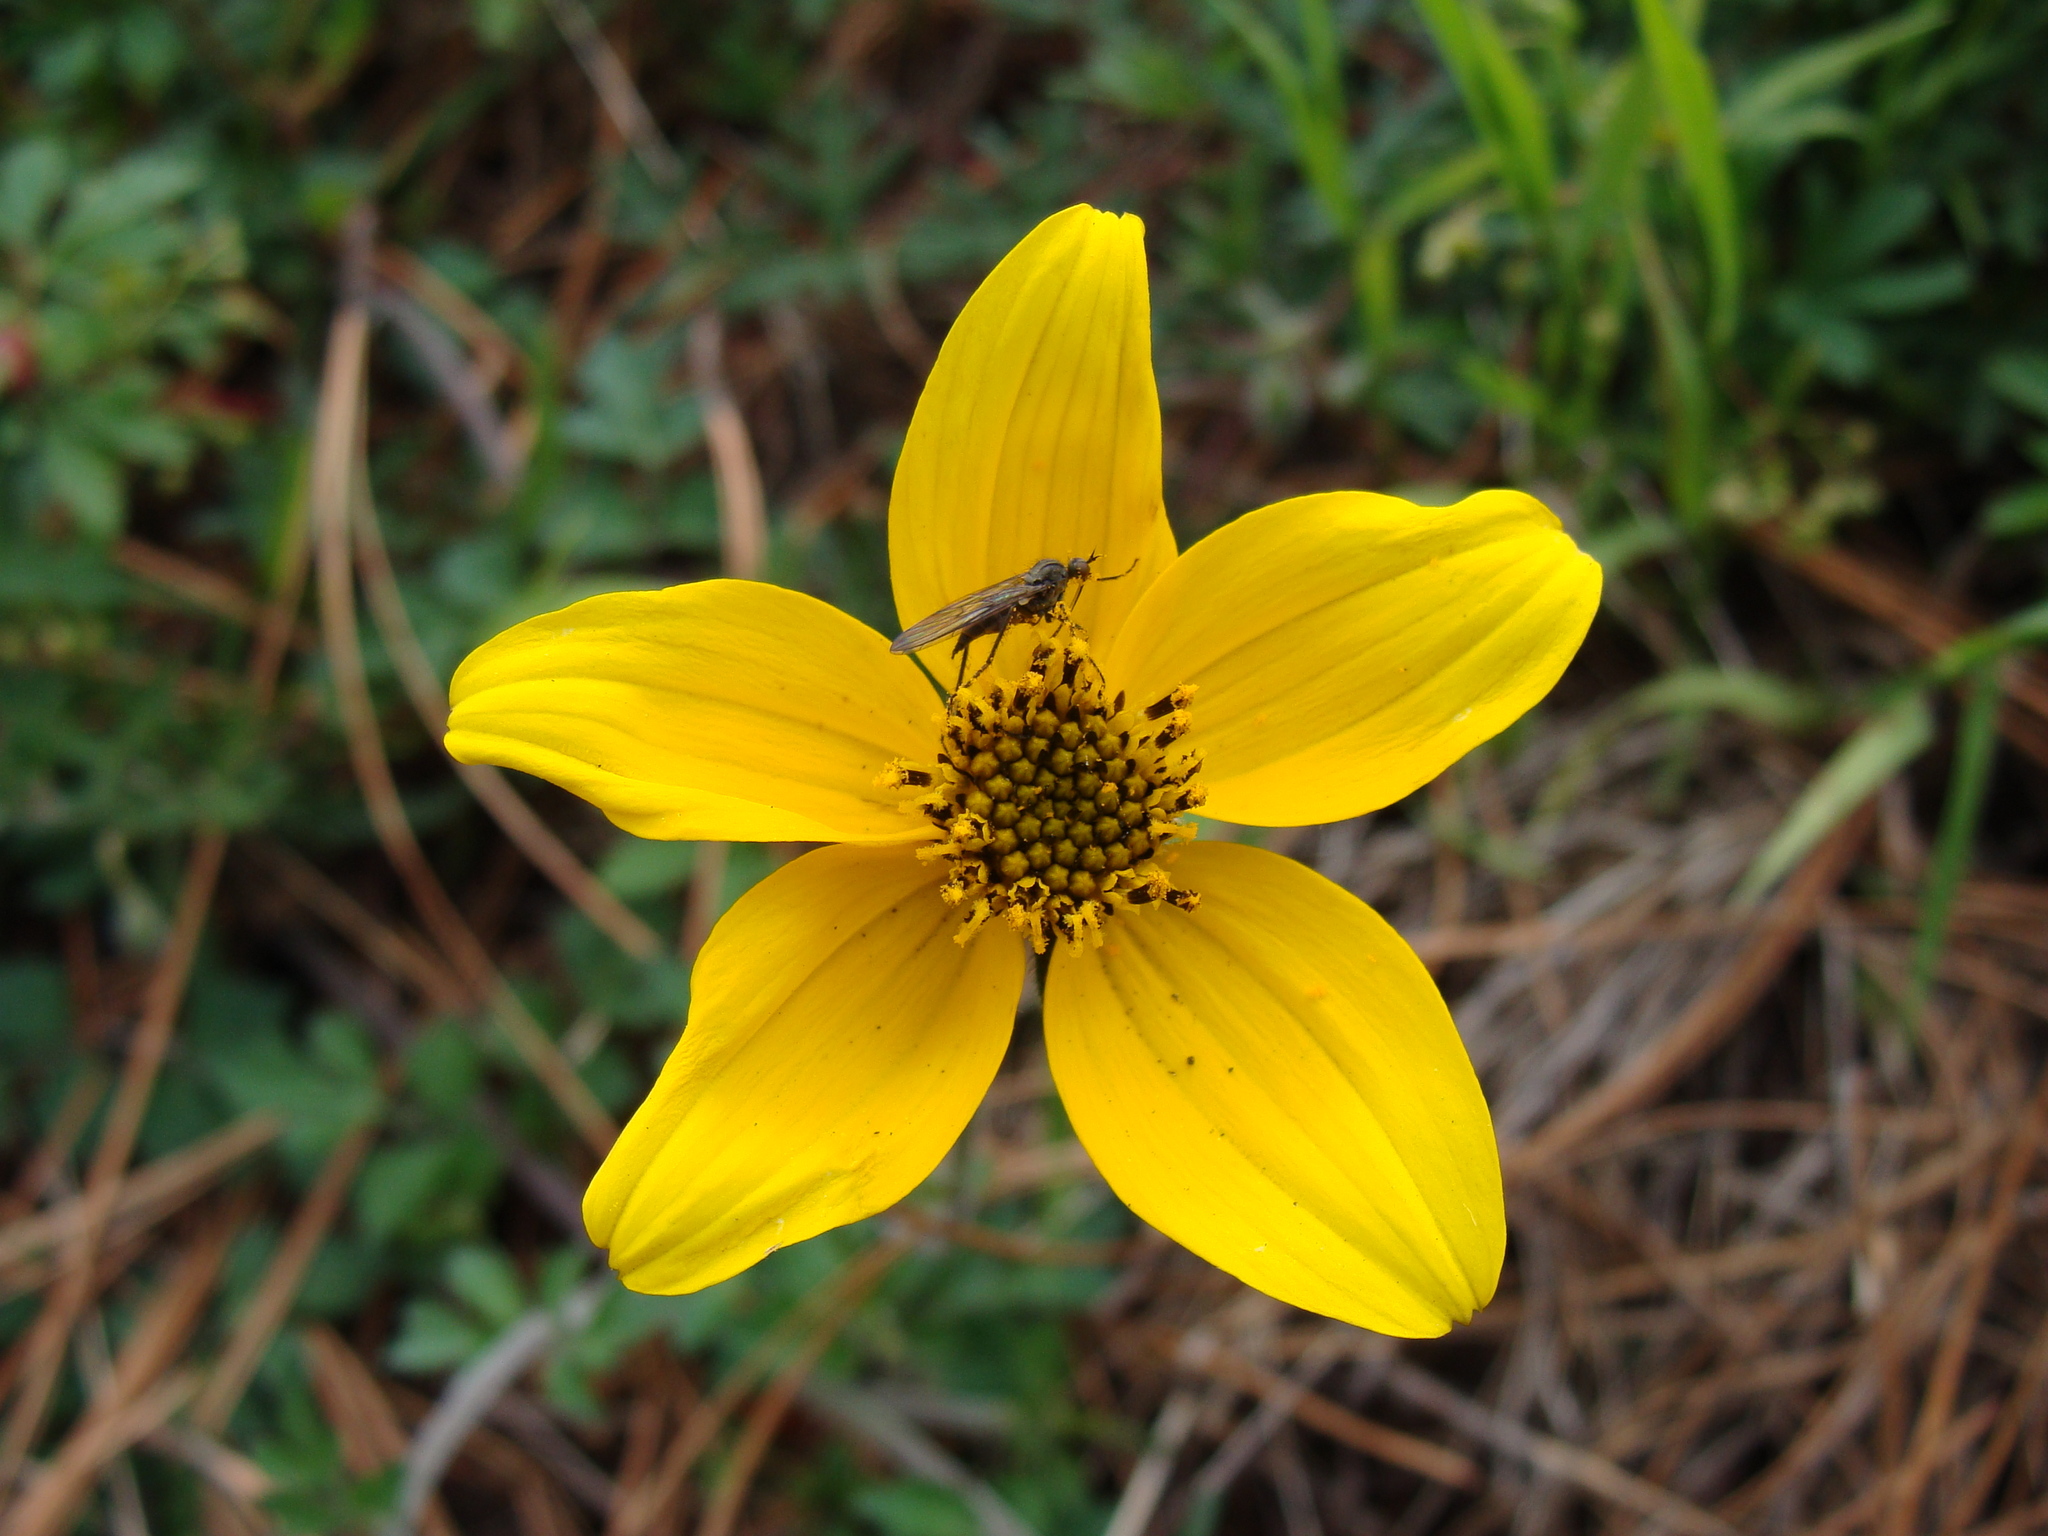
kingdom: Plantae
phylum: Tracheophyta
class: Magnoliopsida
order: Asterales
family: Asteraceae
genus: Bidens
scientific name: Bidens triplinervia
